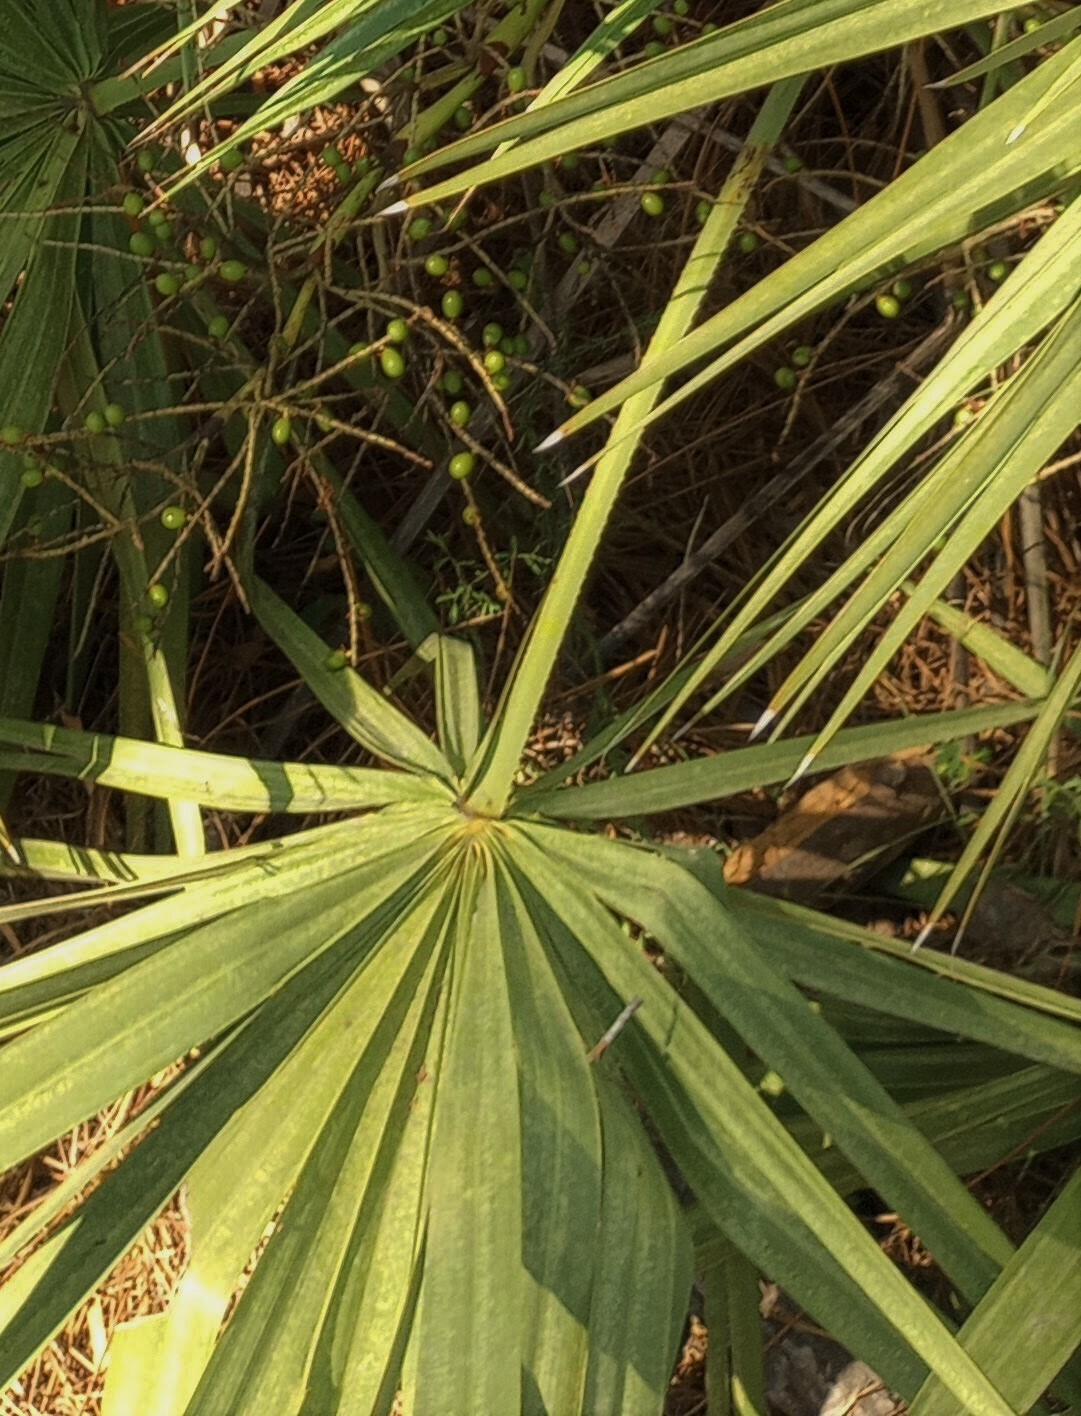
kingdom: Plantae
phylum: Tracheophyta
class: Liliopsida
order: Arecales
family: Arecaceae
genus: Serenoa
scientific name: Serenoa repens
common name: Saw-palmetto
